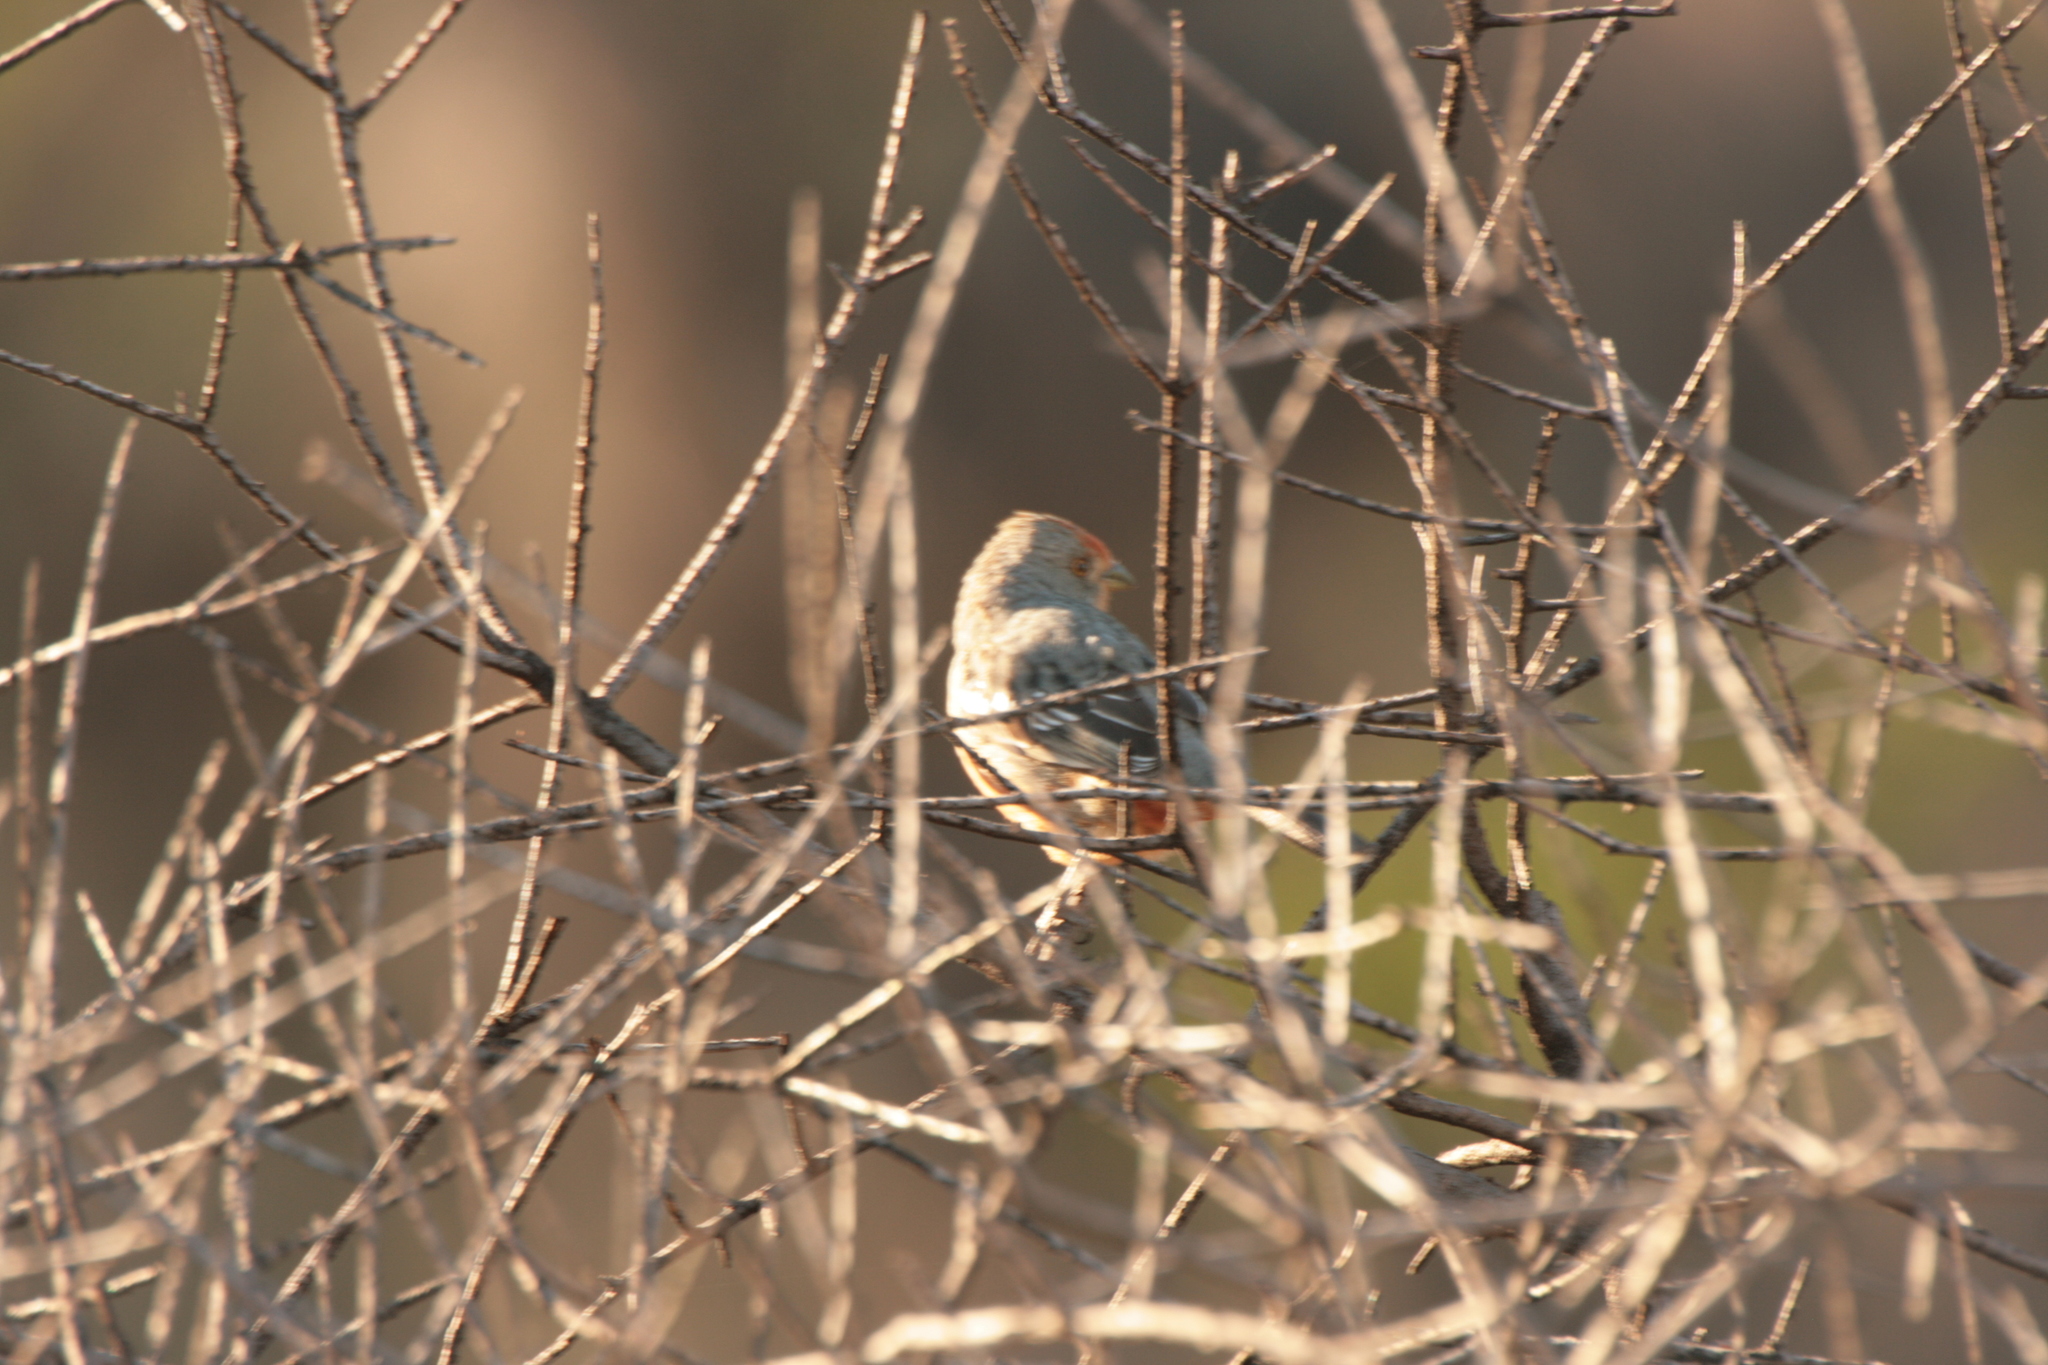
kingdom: Animalia
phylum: Chordata
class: Aves
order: Passeriformes
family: Cotingidae
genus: Phytotoma
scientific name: Phytotoma rutila
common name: White-tipped plantcutter
